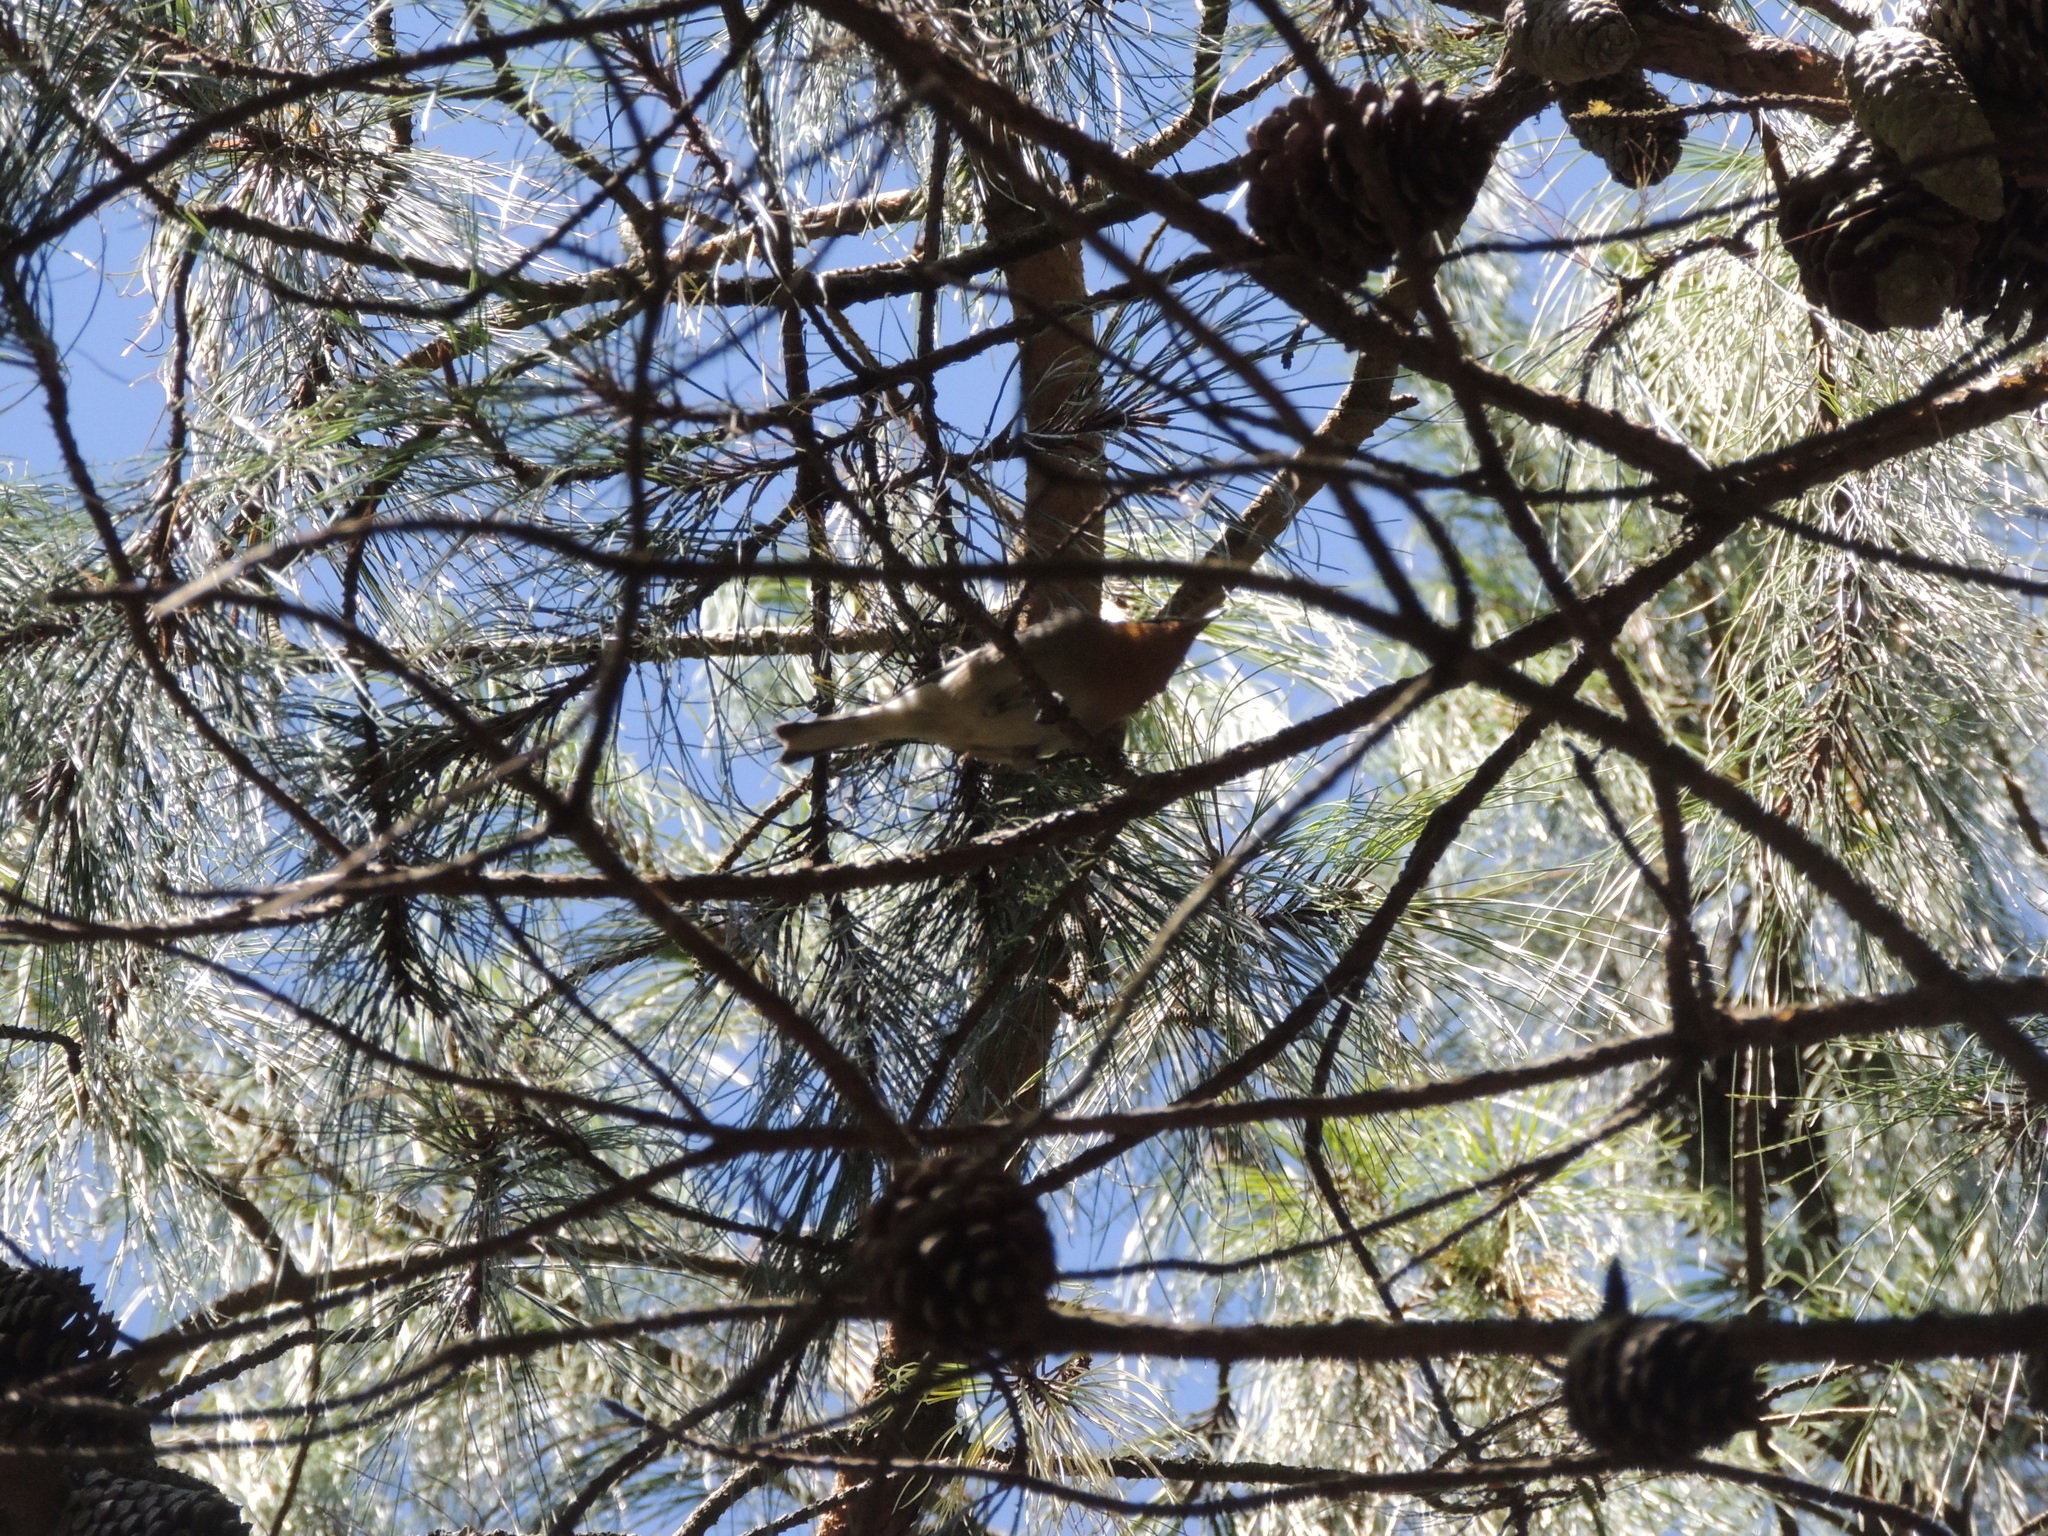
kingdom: Animalia
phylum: Chordata
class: Aves
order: Passeriformes
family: Peucedramidae
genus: Peucedramus
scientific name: Peucedramus taeniatus
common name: Olive warbler
